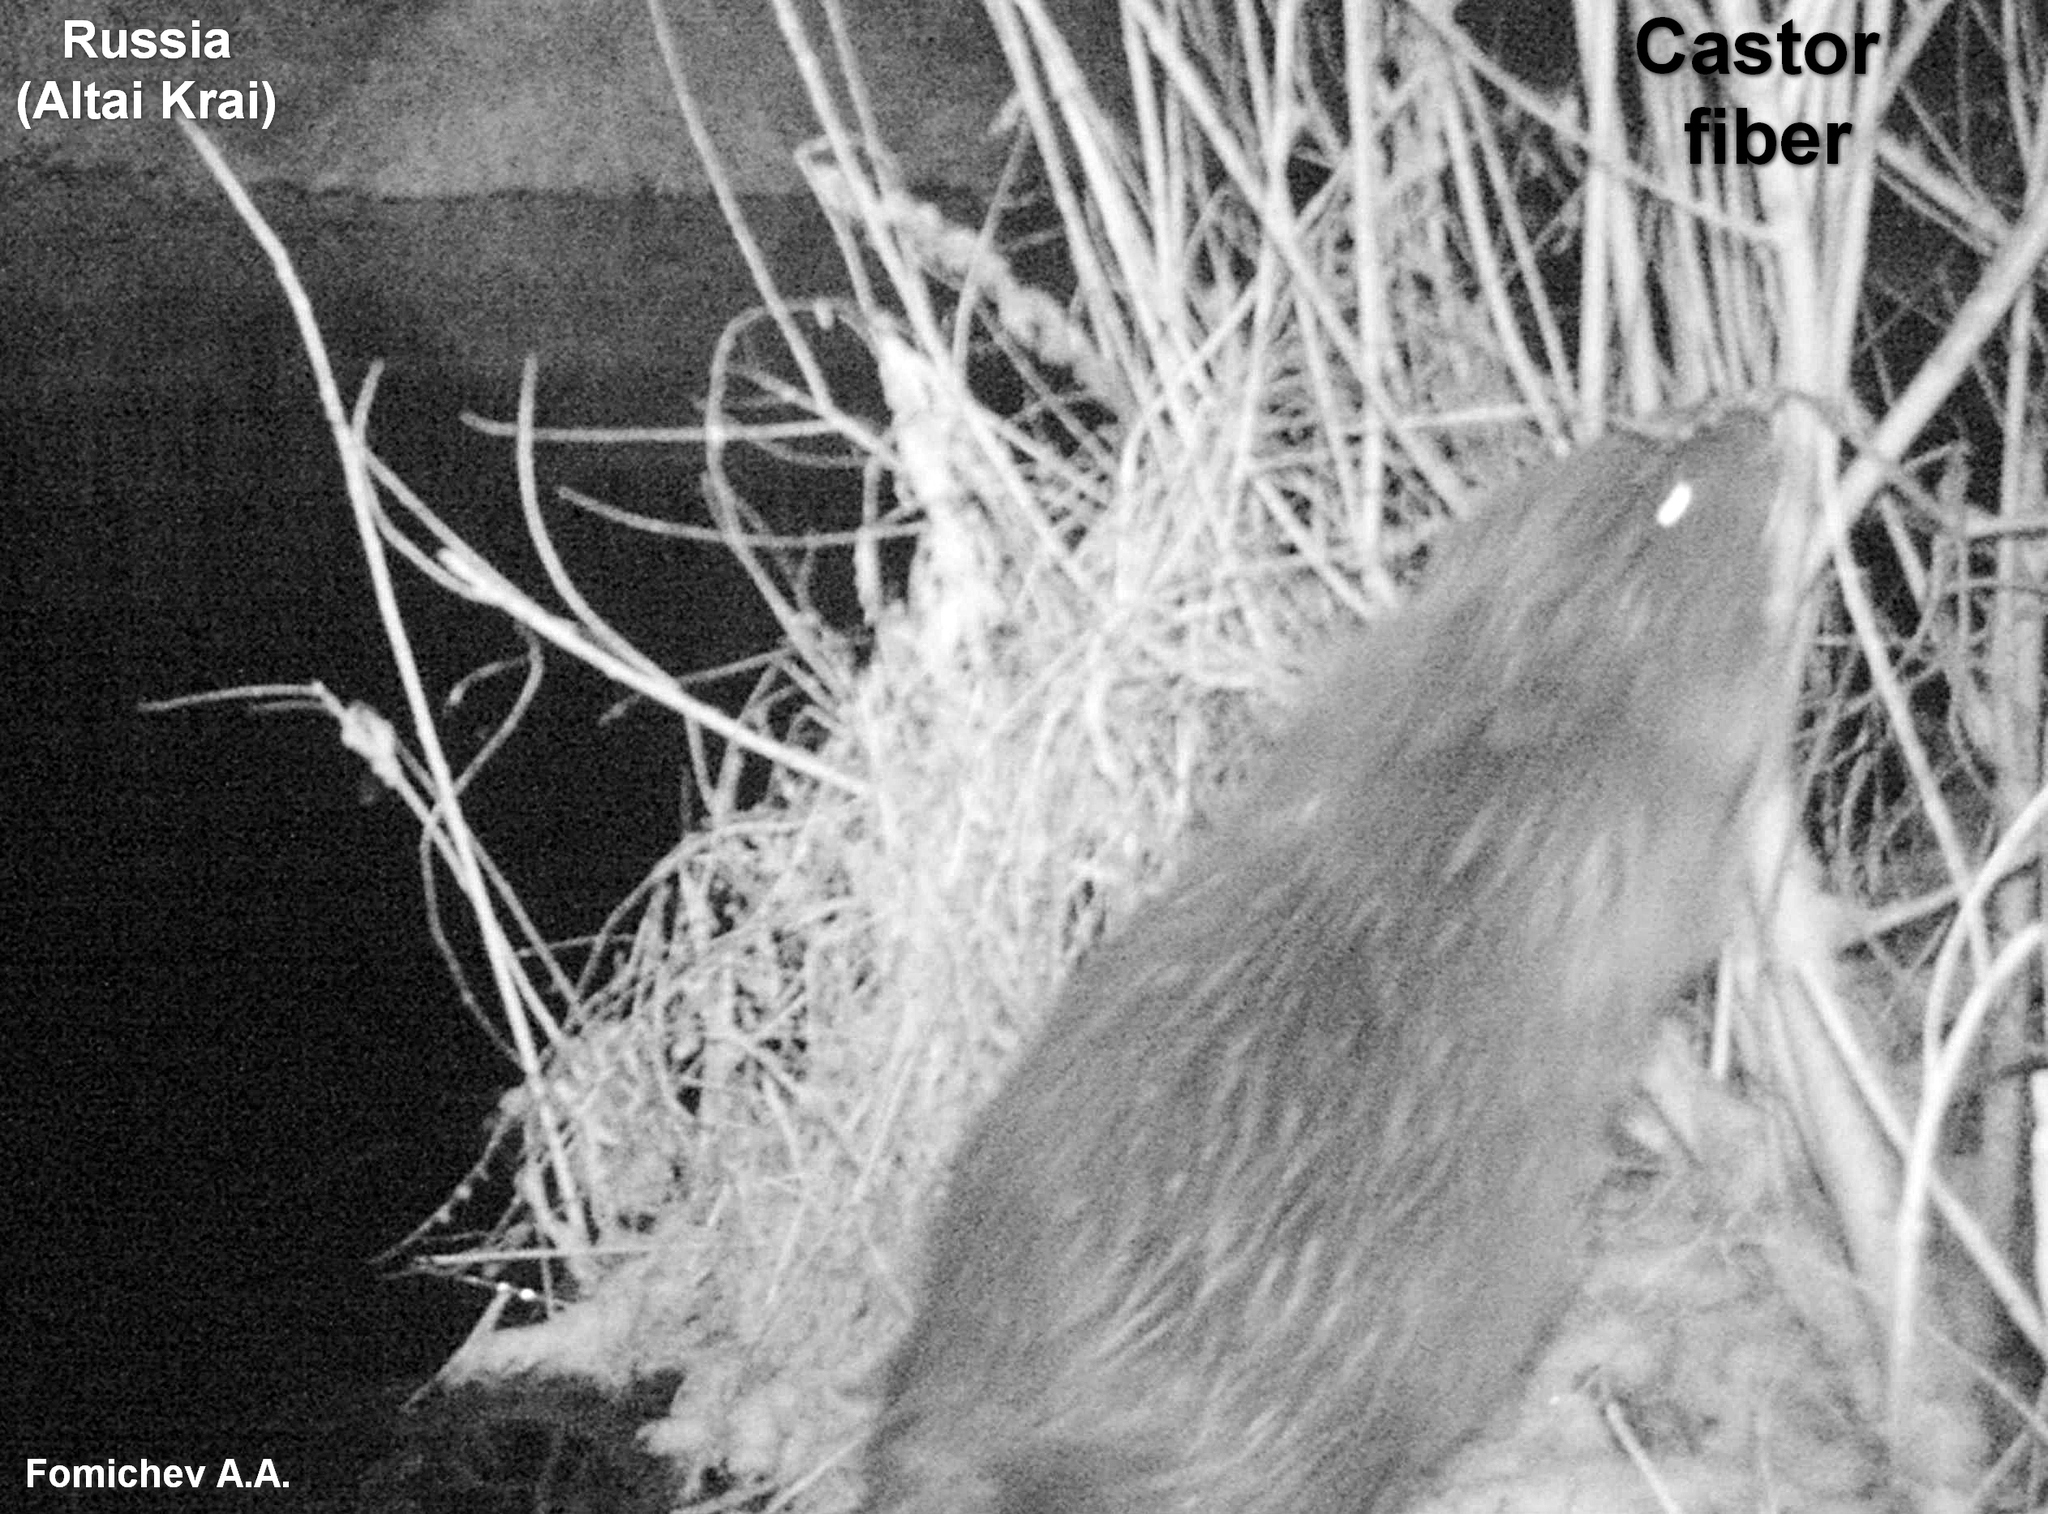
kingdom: Animalia
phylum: Chordata
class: Mammalia
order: Rodentia
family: Castoridae
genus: Castor
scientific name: Castor fiber
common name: Eurasian beaver
